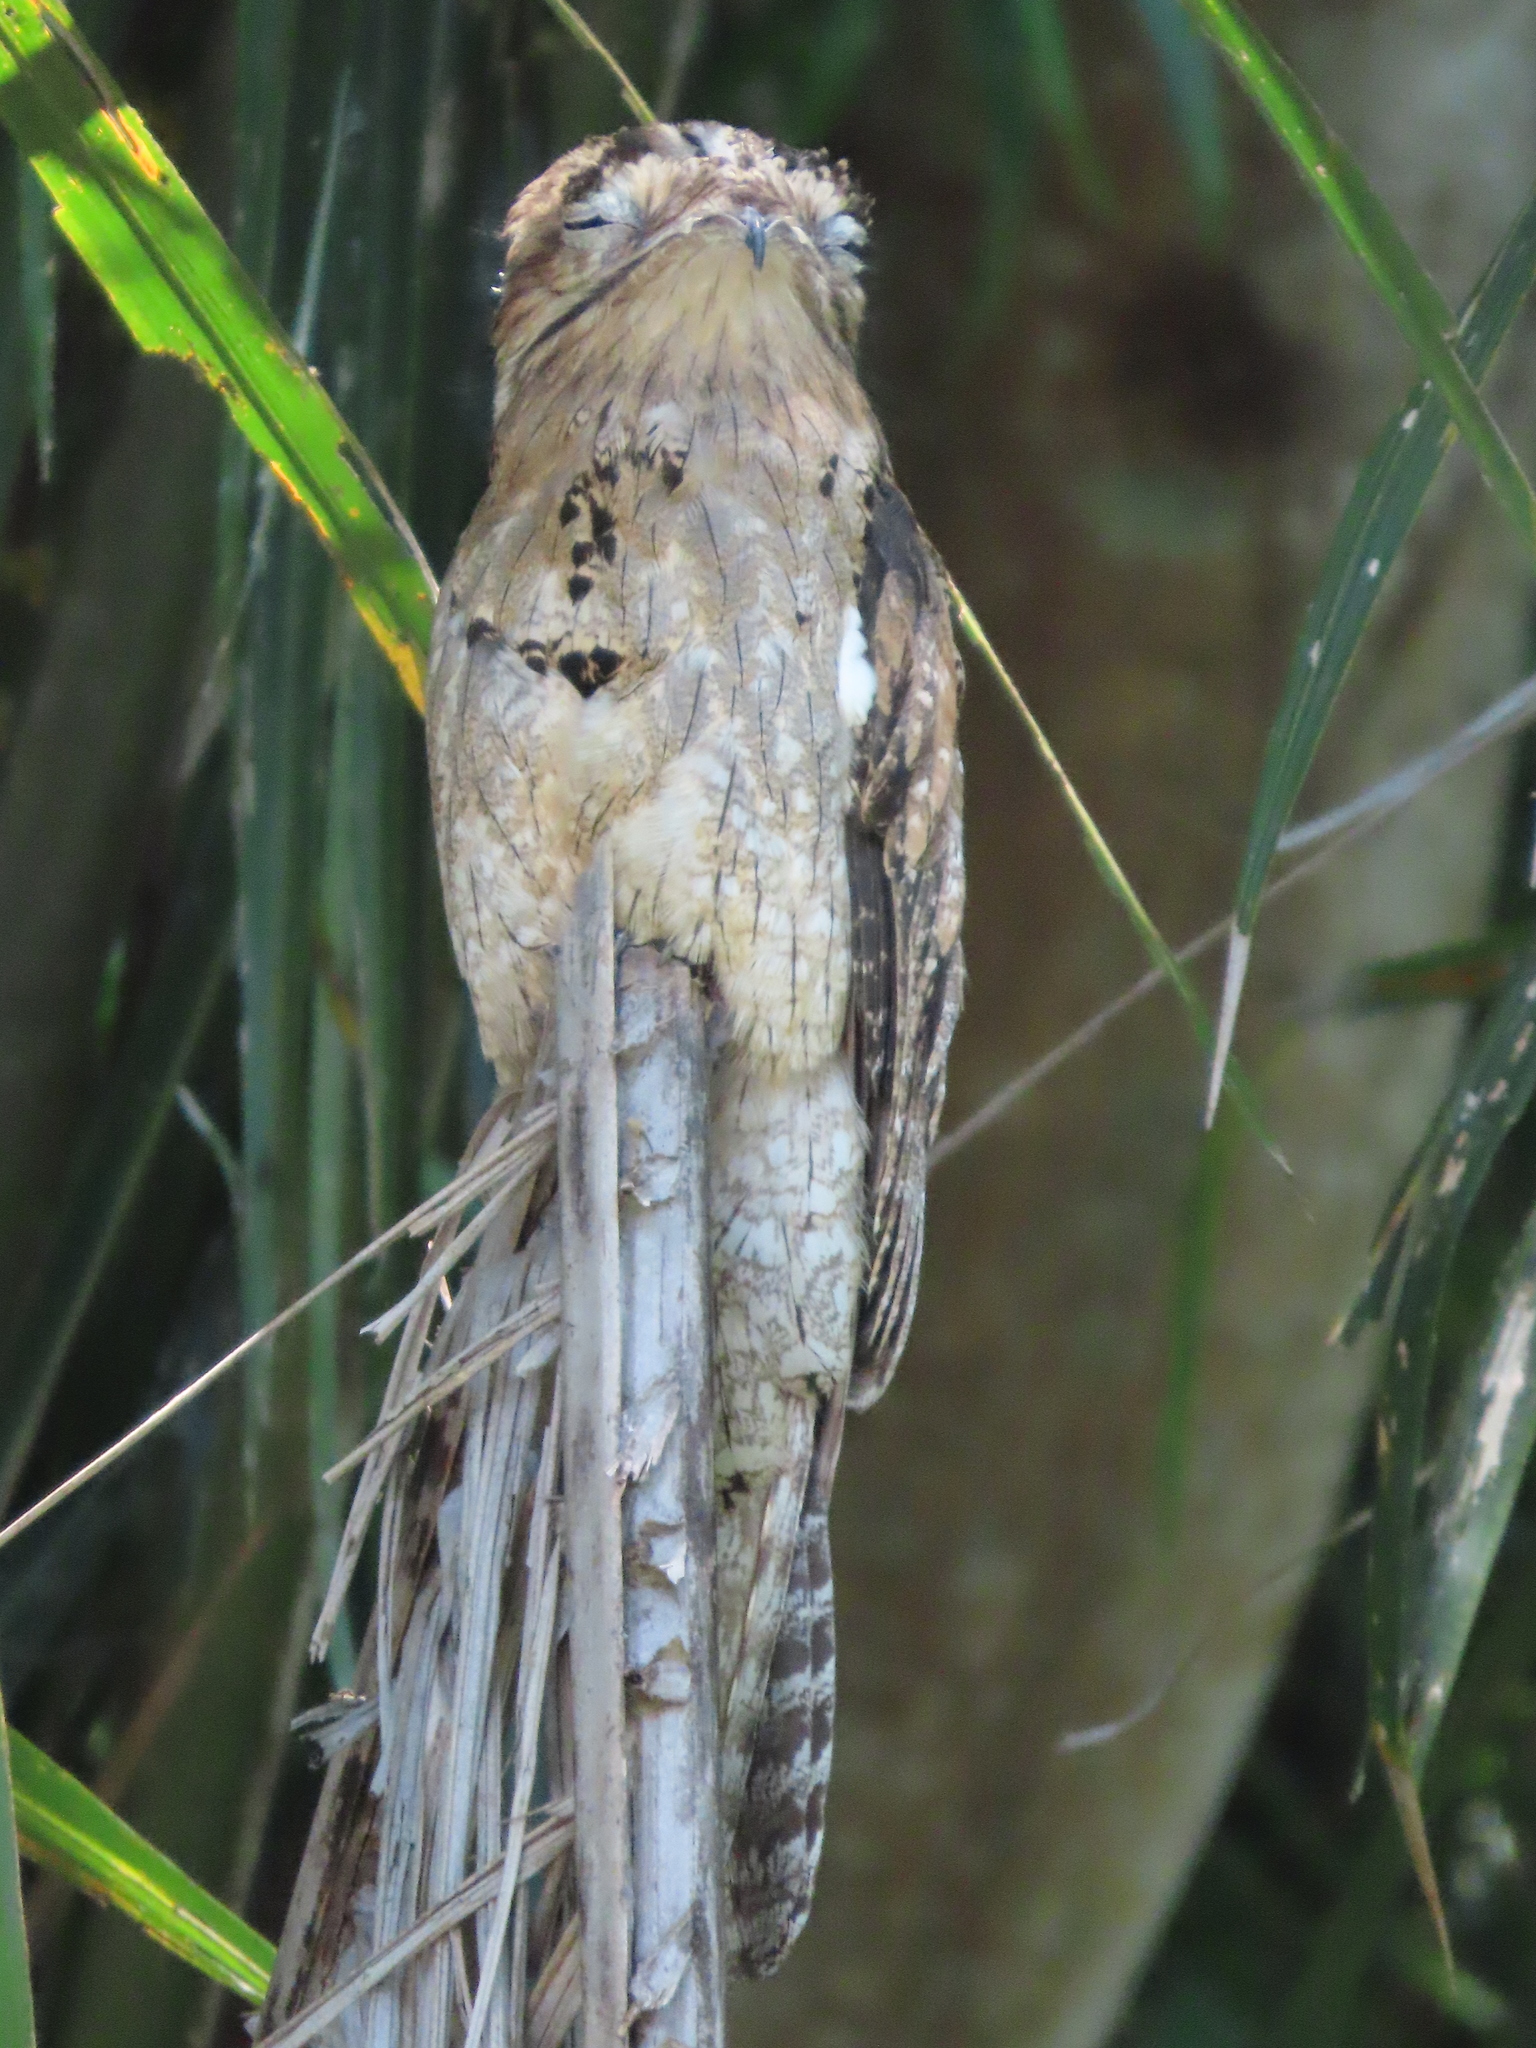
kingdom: Animalia
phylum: Chordata
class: Aves
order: Nyctibiiformes
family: Nyctibiidae
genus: Nyctibius
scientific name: Nyctibius jamaicensis
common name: Northern potoo
